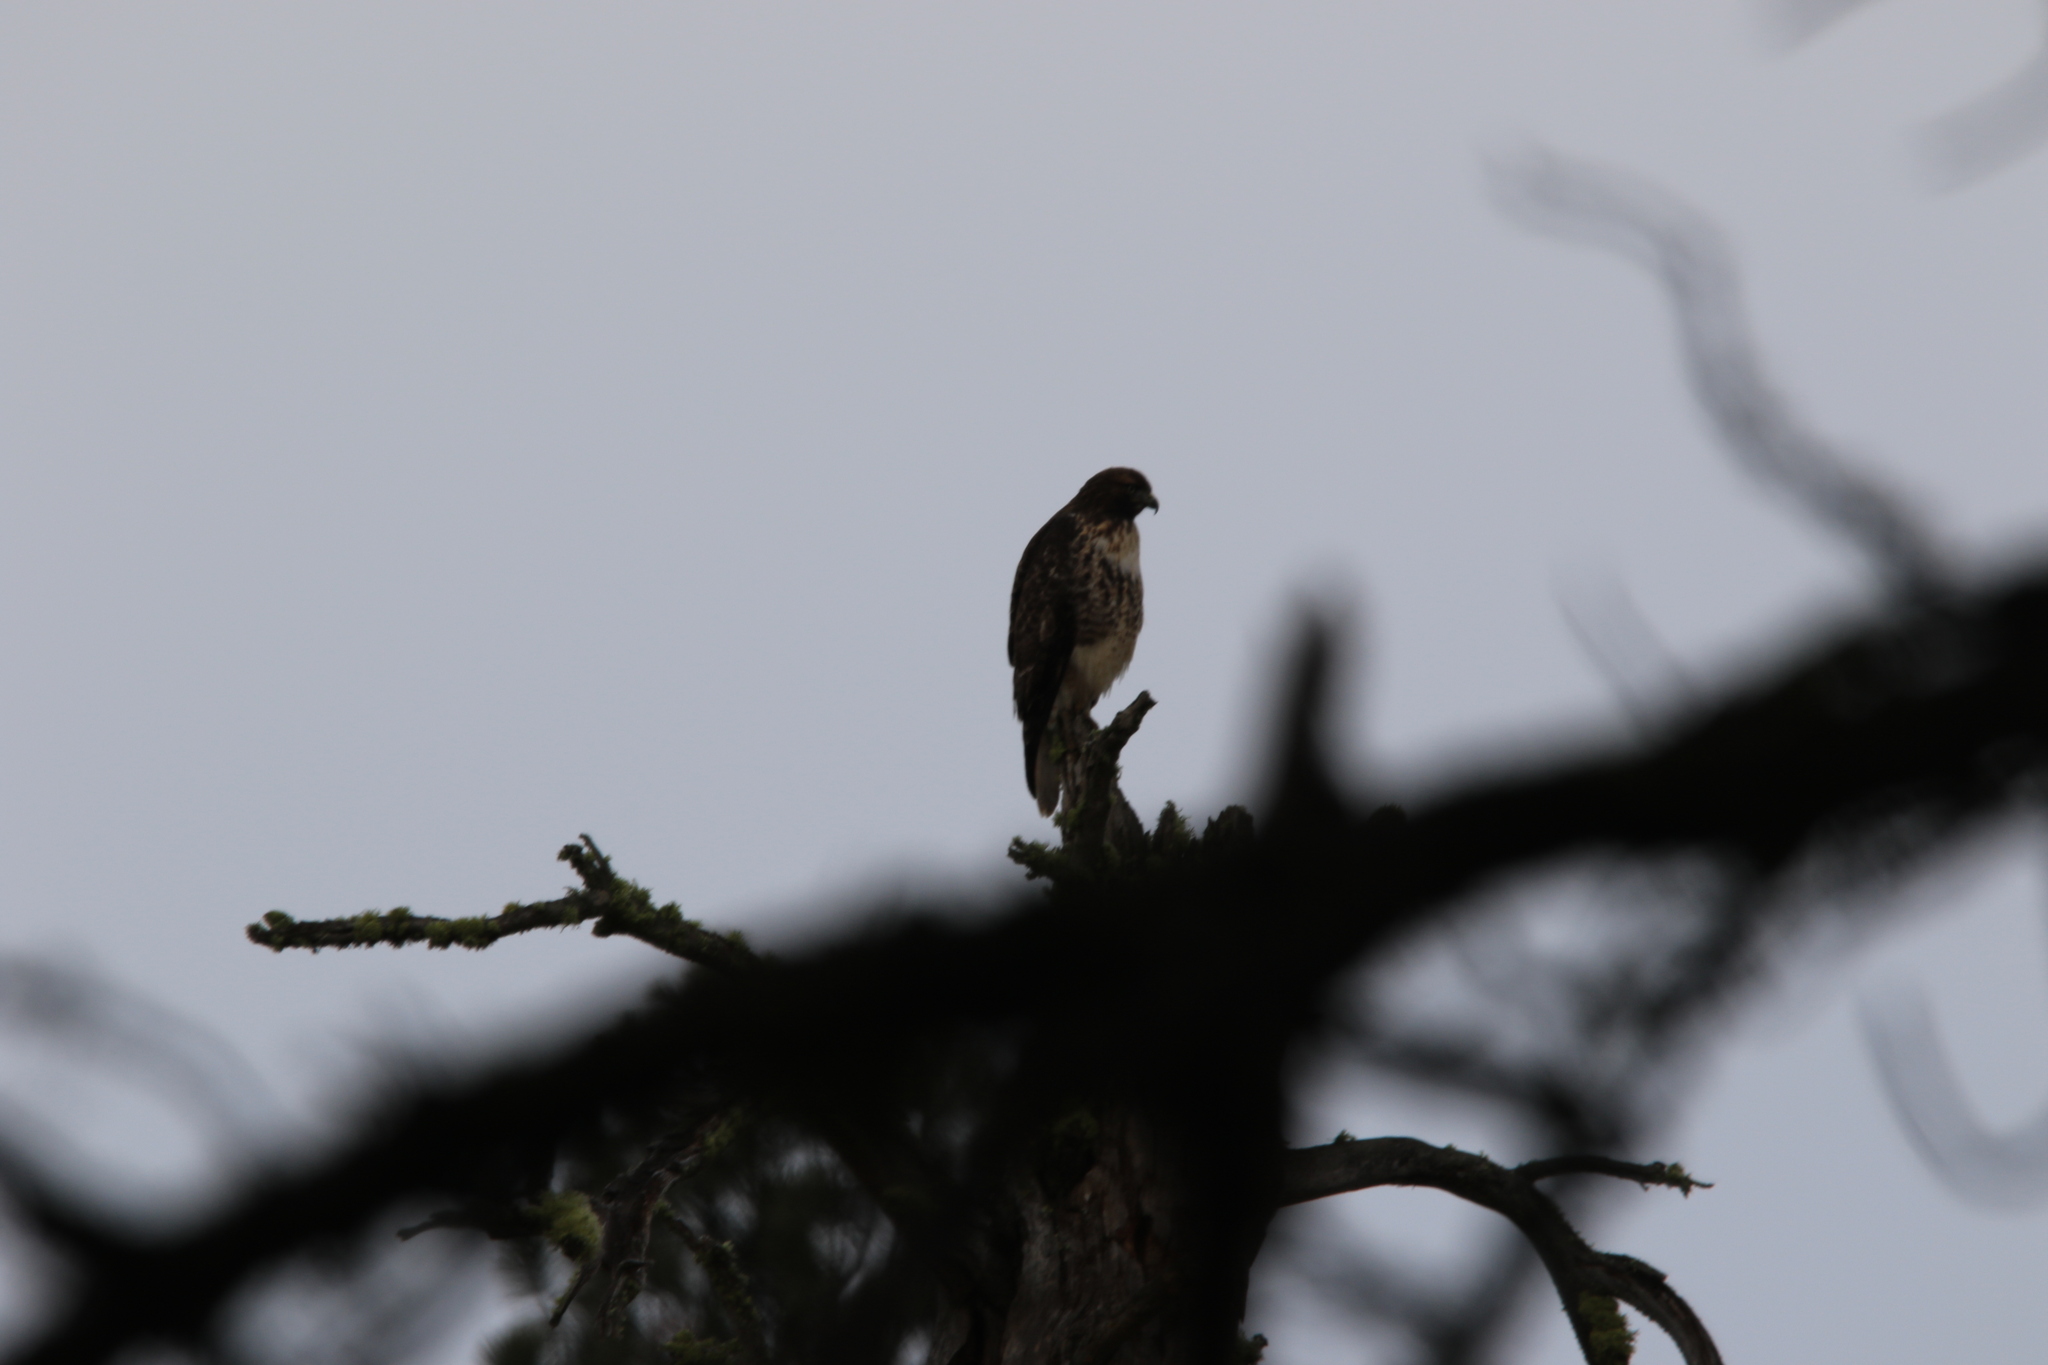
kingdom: Animalia
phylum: Chordata
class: Aves
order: Accipitriformes
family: Accipitridae
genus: Buteo
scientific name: Buteo jamaicensis
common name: Red-tailed hawk
